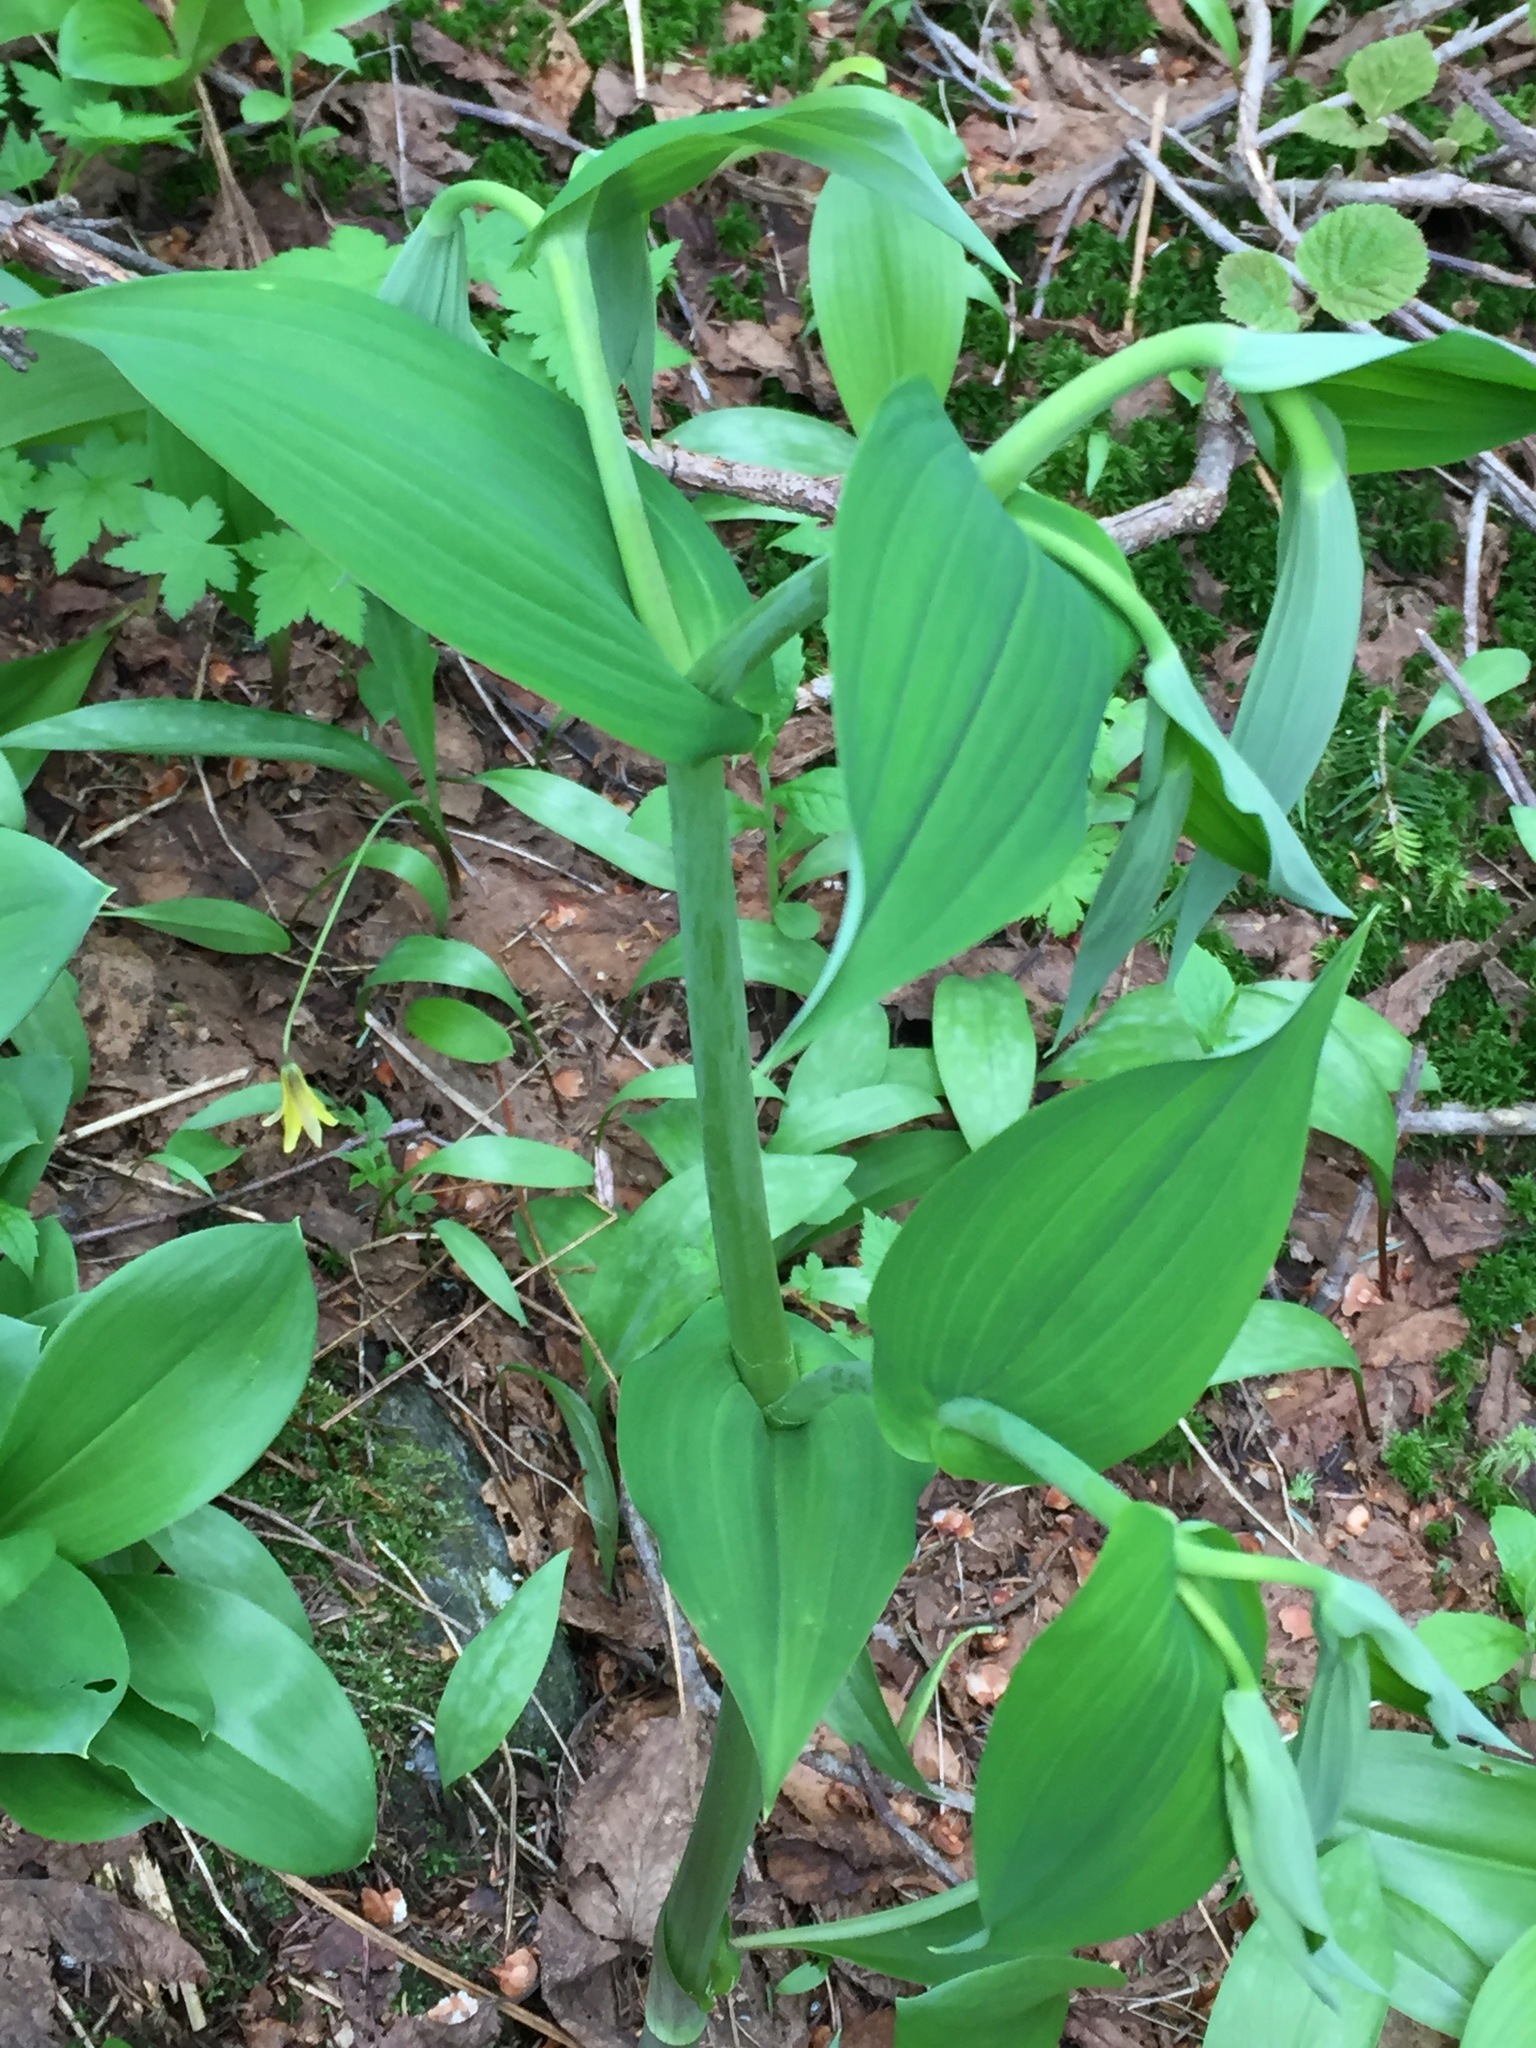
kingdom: Plantae
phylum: Tracheophyta
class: Liliopsida
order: Liliales
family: Liliaceae
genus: Streptopus
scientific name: Streptopus amplexifolius
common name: Clasp twisted stalk
